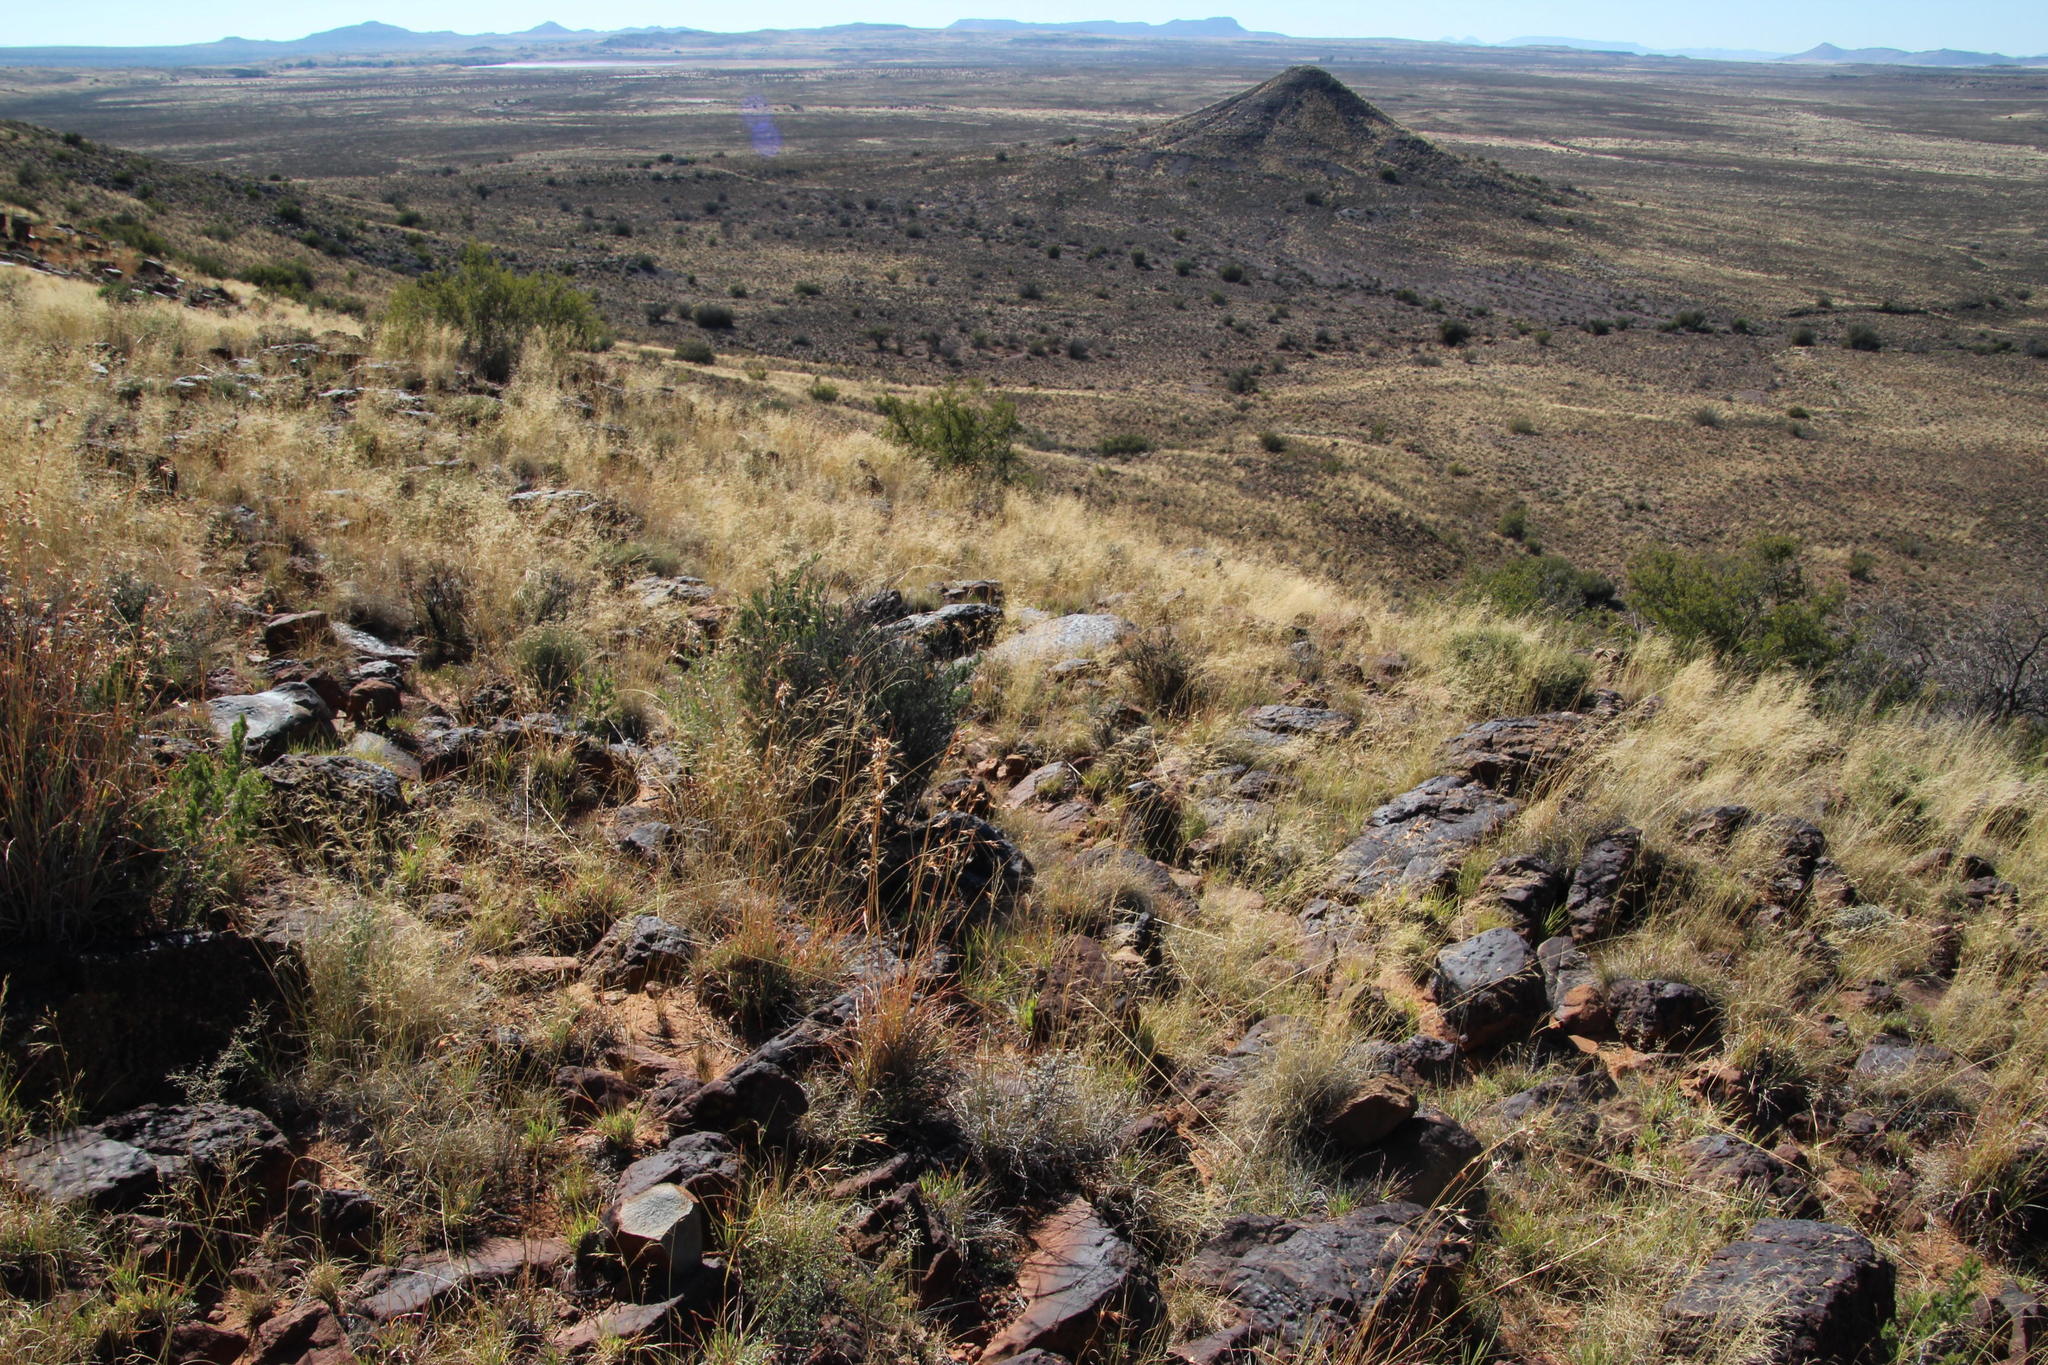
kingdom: Plantae
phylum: Tracheophyta
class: Liliopsida
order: Poales
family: Poaceae
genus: Themeda
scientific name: Themeda triandra
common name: Kangaroo grass
